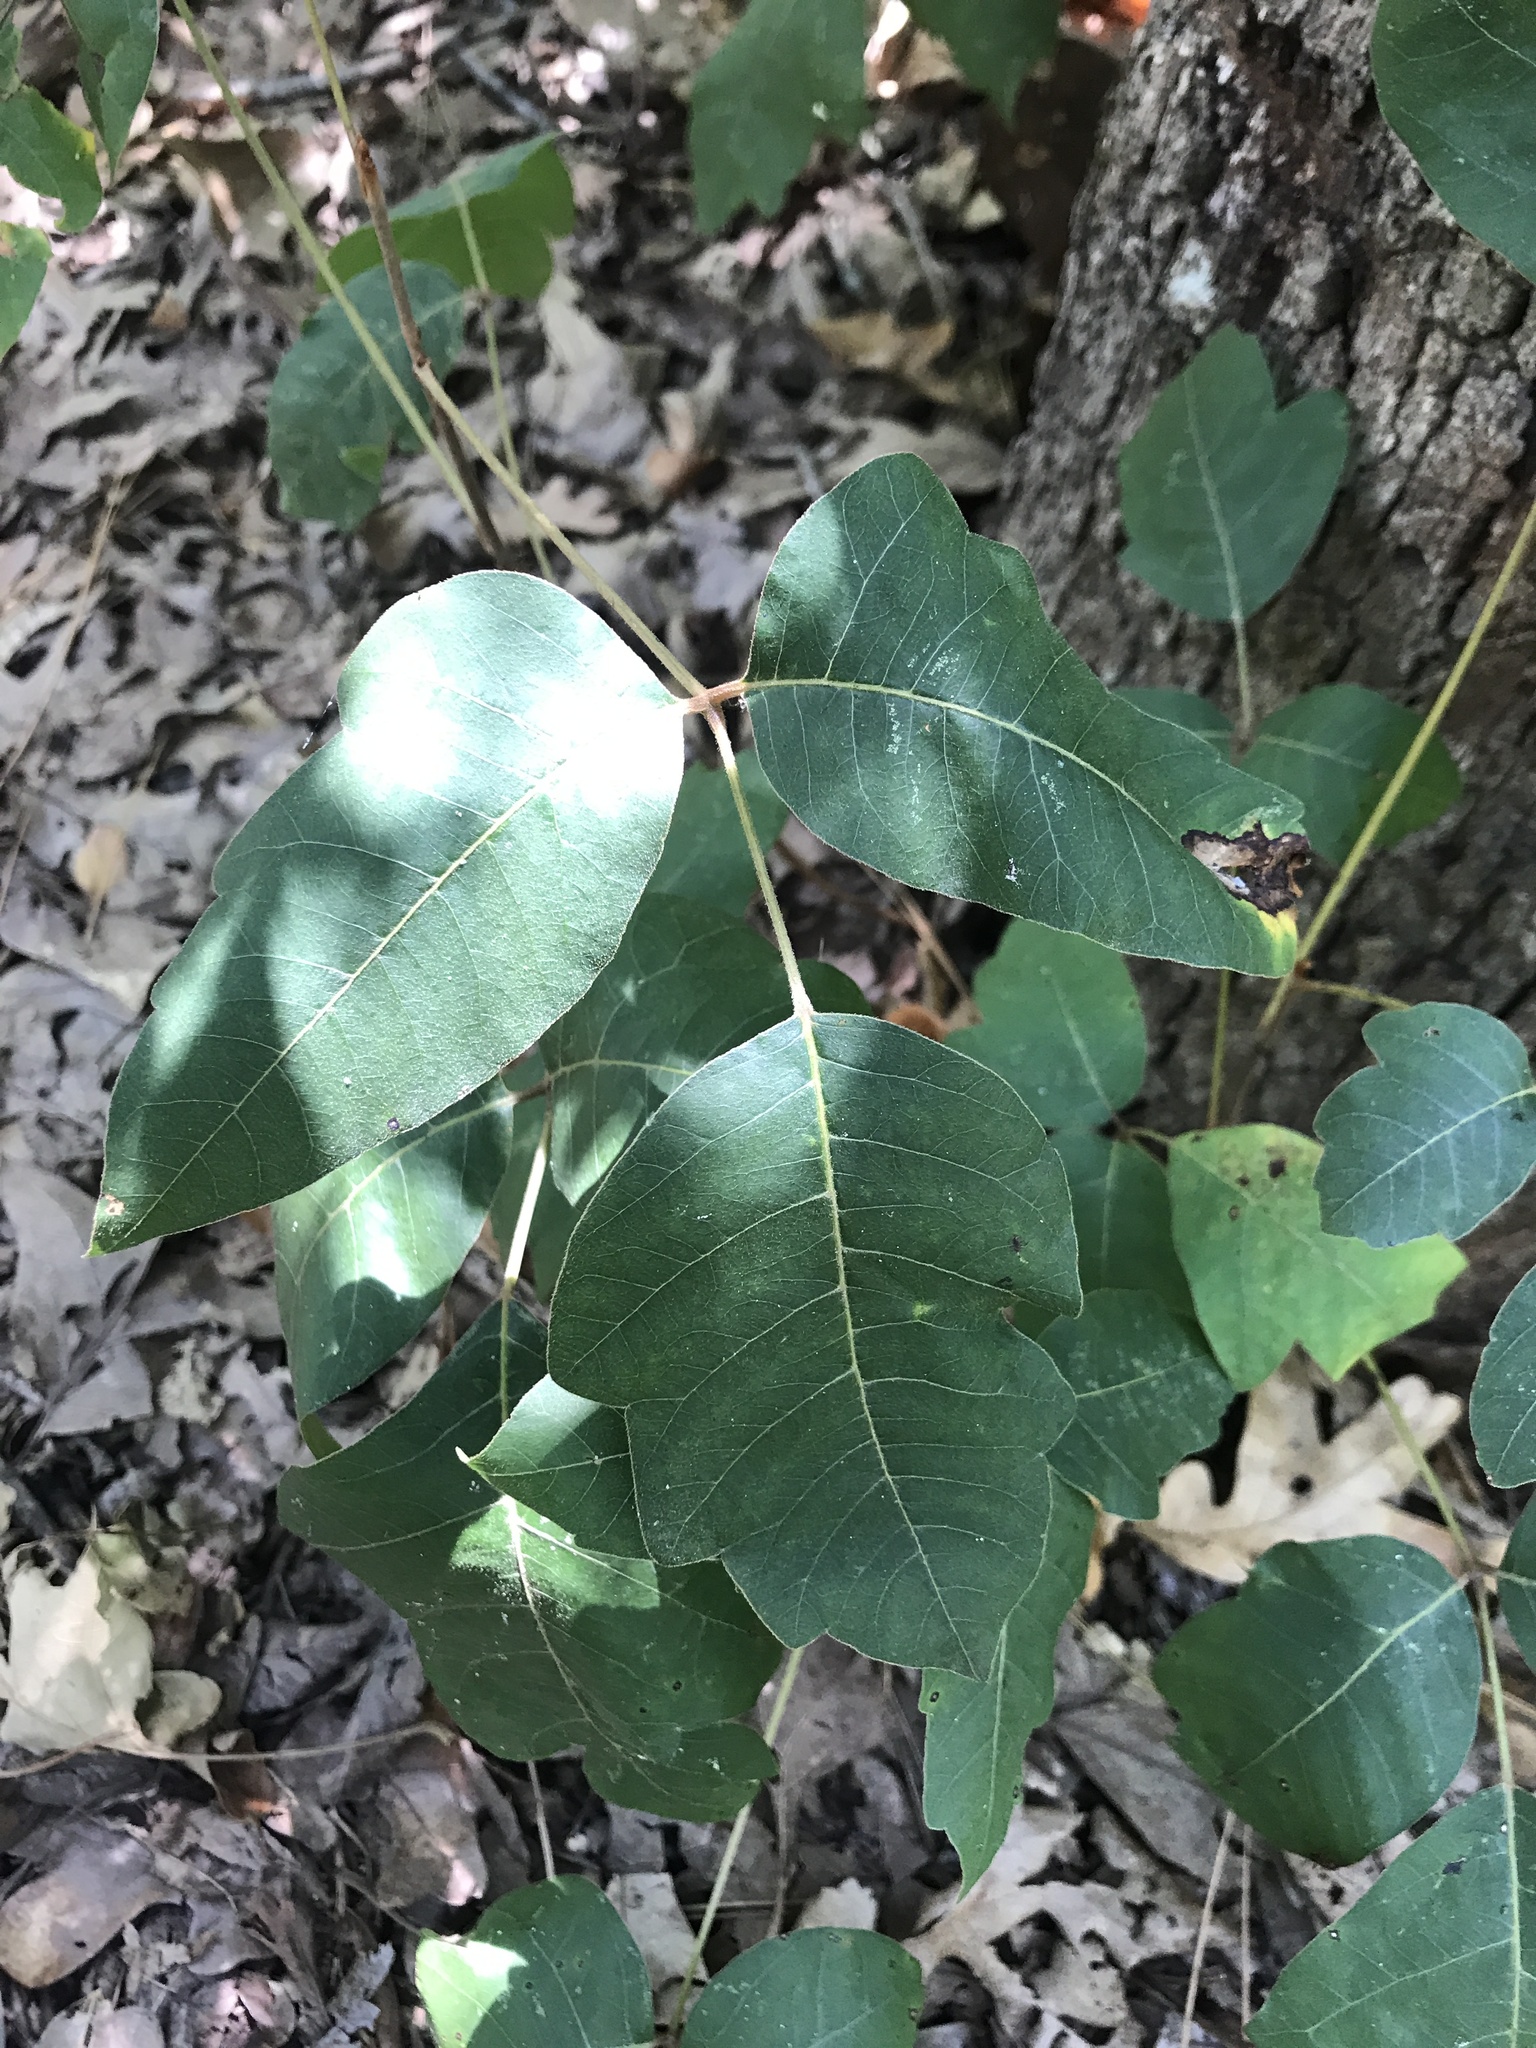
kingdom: Plantae
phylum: Tracheophyta
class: Magnoliopsida
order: Sapindales
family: Anacardiaceae
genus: Toxicodendron
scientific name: Toxicodendron radicans
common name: Poison ivy
